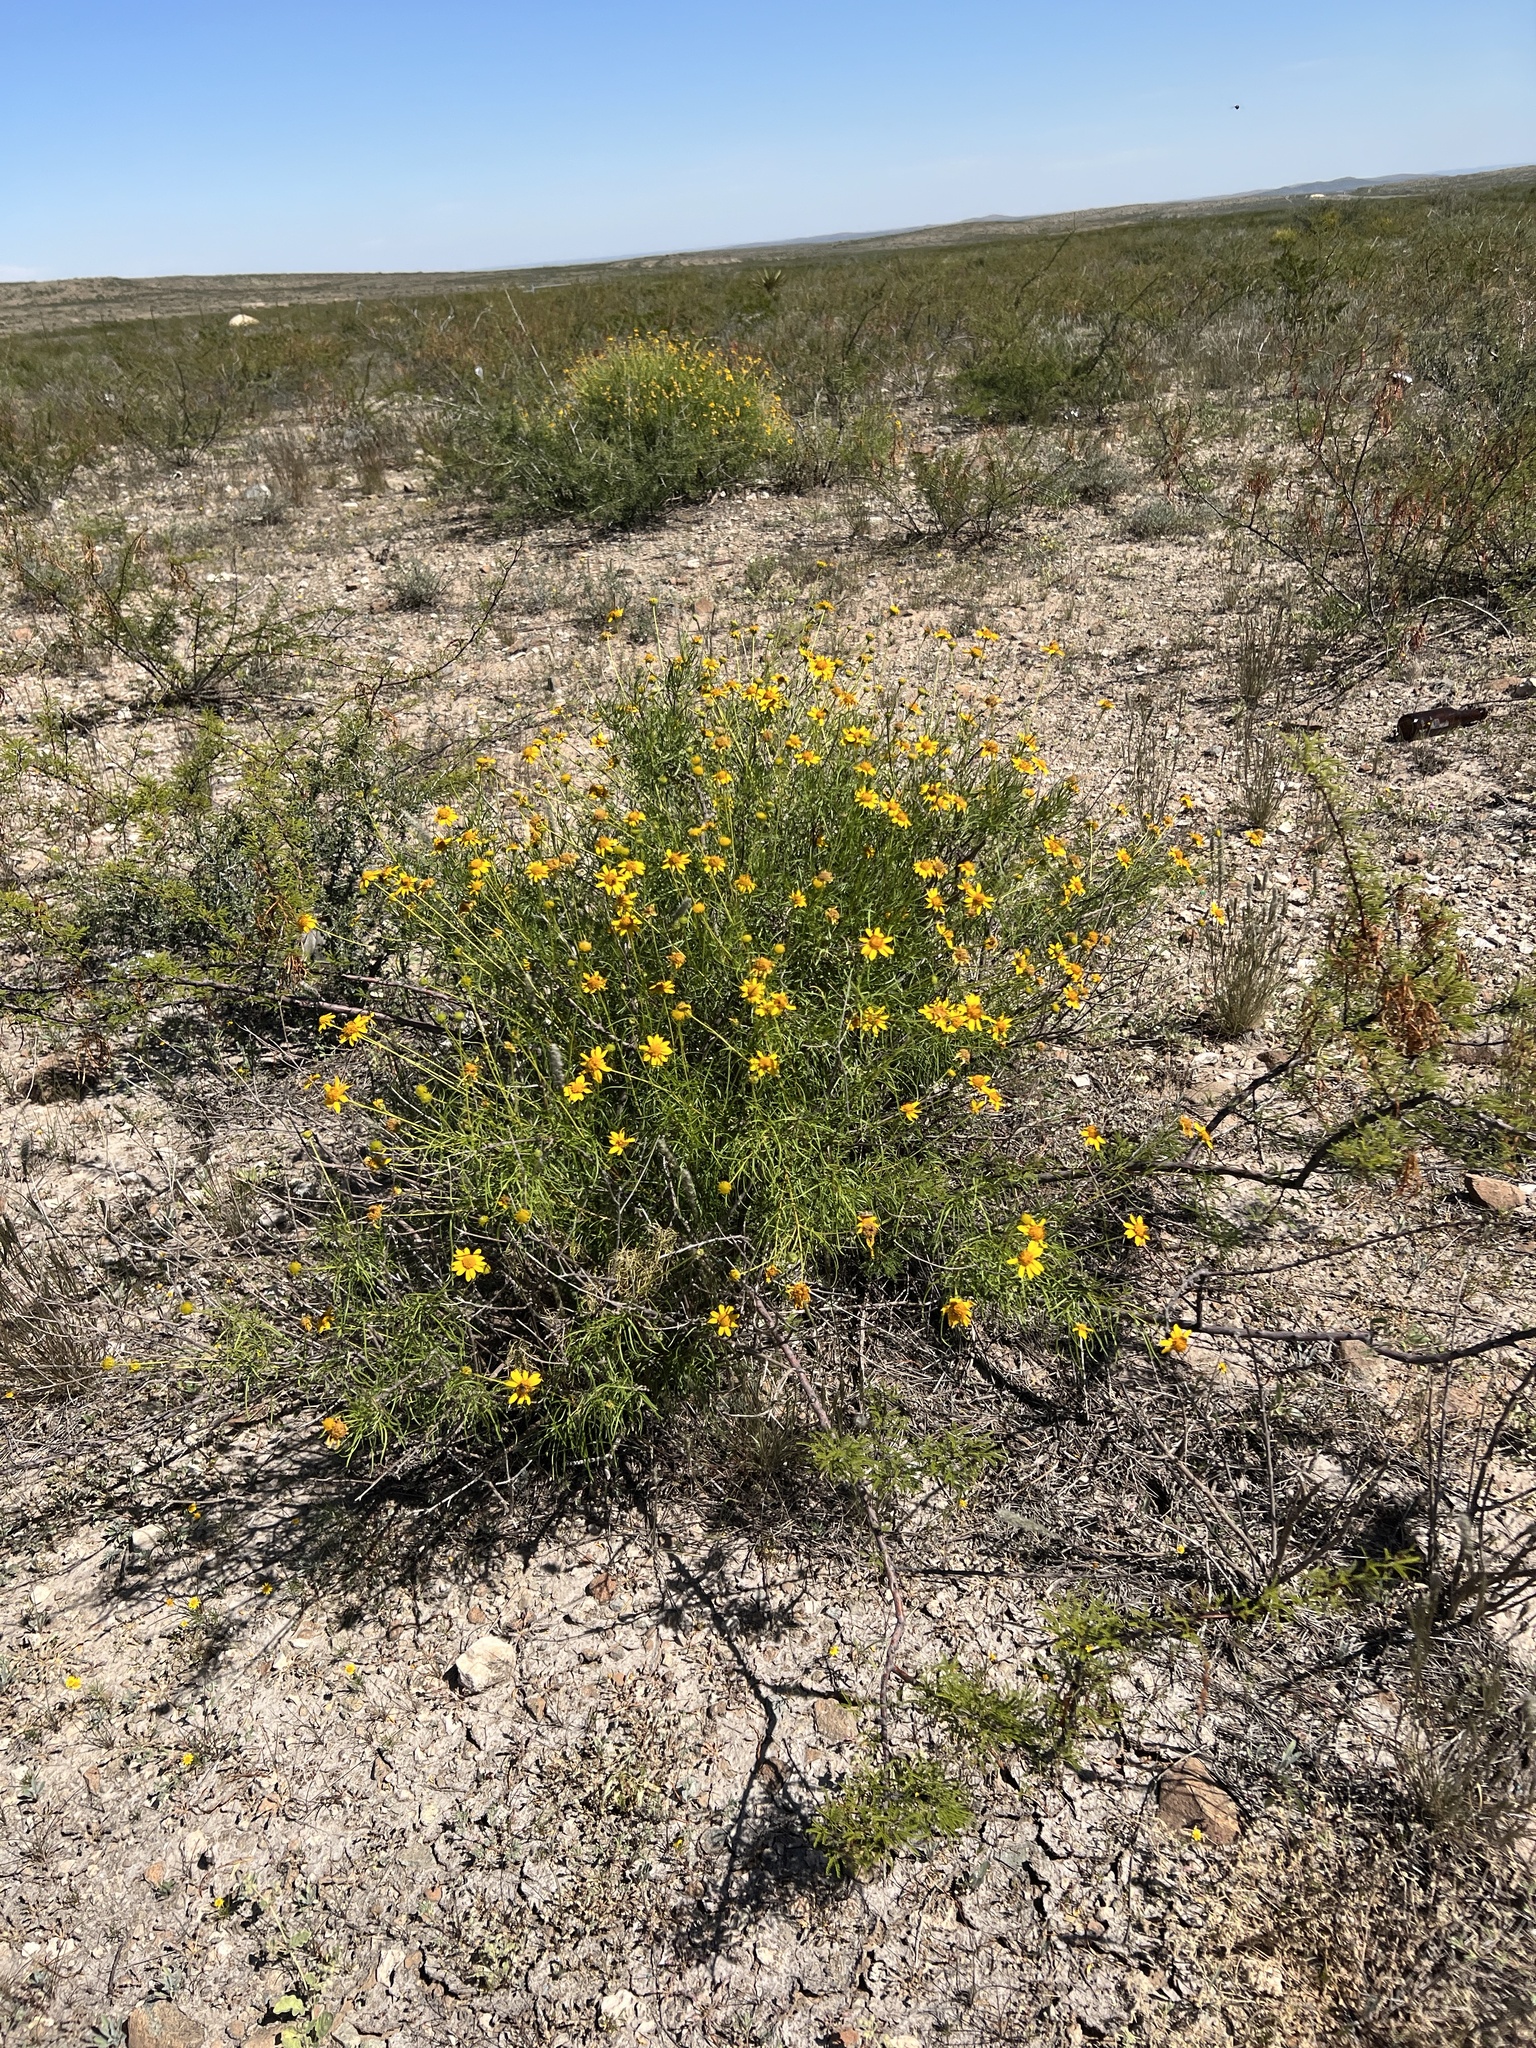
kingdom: Plantae
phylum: Tracheophyta
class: Magnoliopsida
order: Asterales
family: Asteraceae
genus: Sidneya
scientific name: Sidneya tenuifolia
